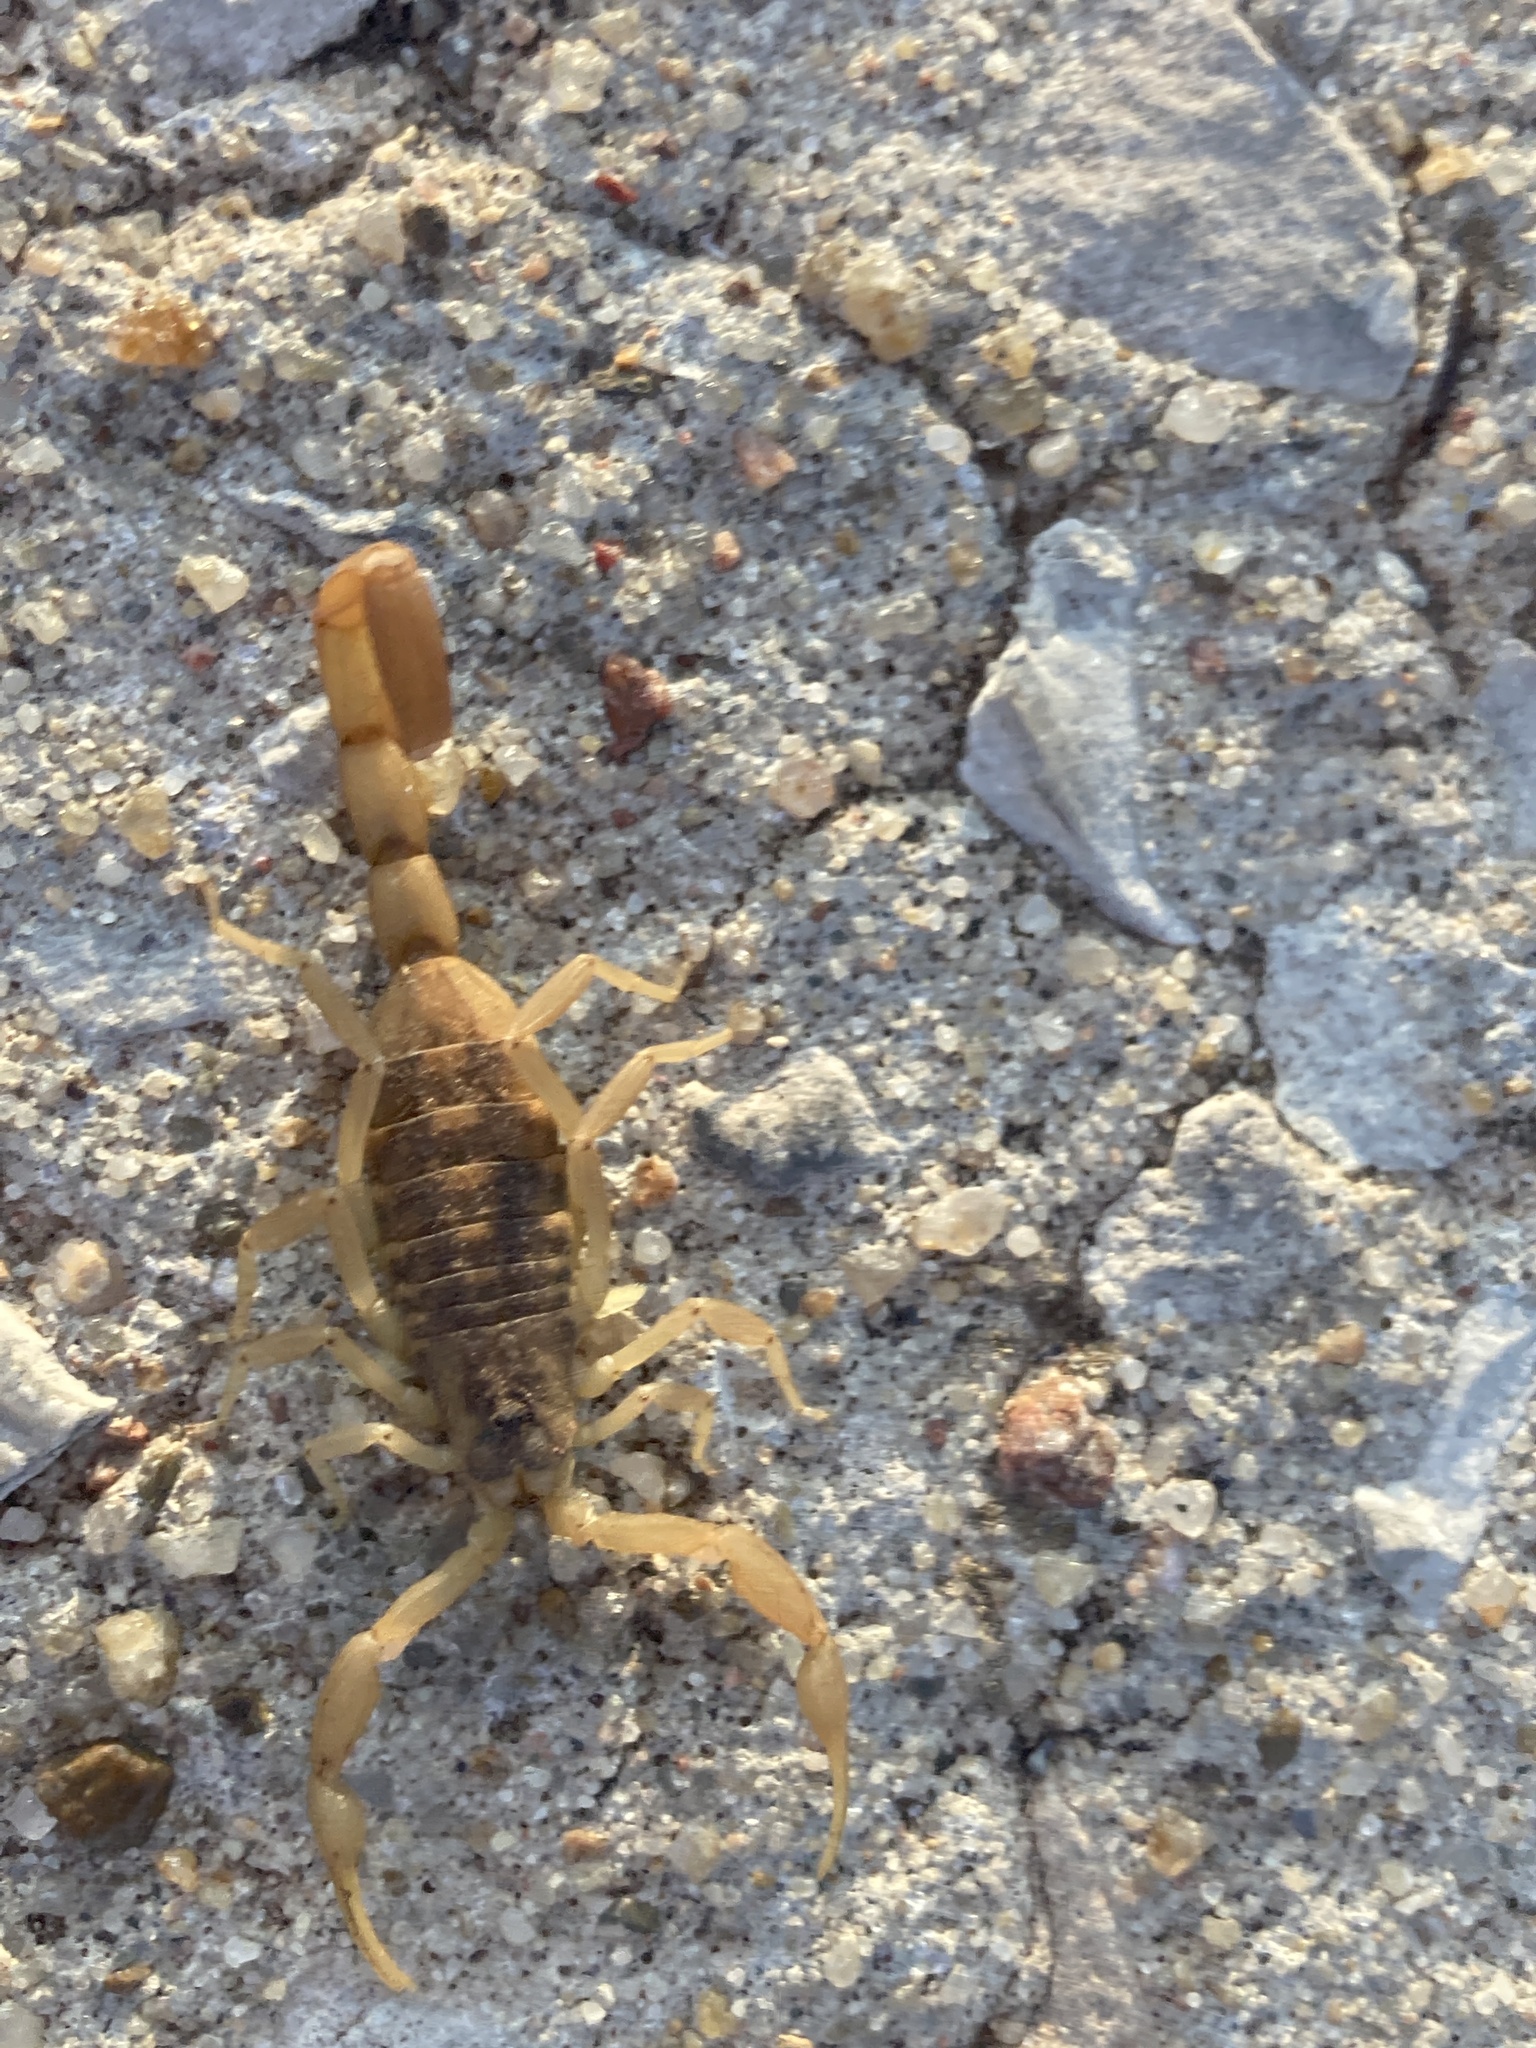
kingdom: Animalia
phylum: Arthropoda
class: Arachnida
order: Scorpiones
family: Buthidae
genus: Centruroides
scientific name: Centruroides vittatus
